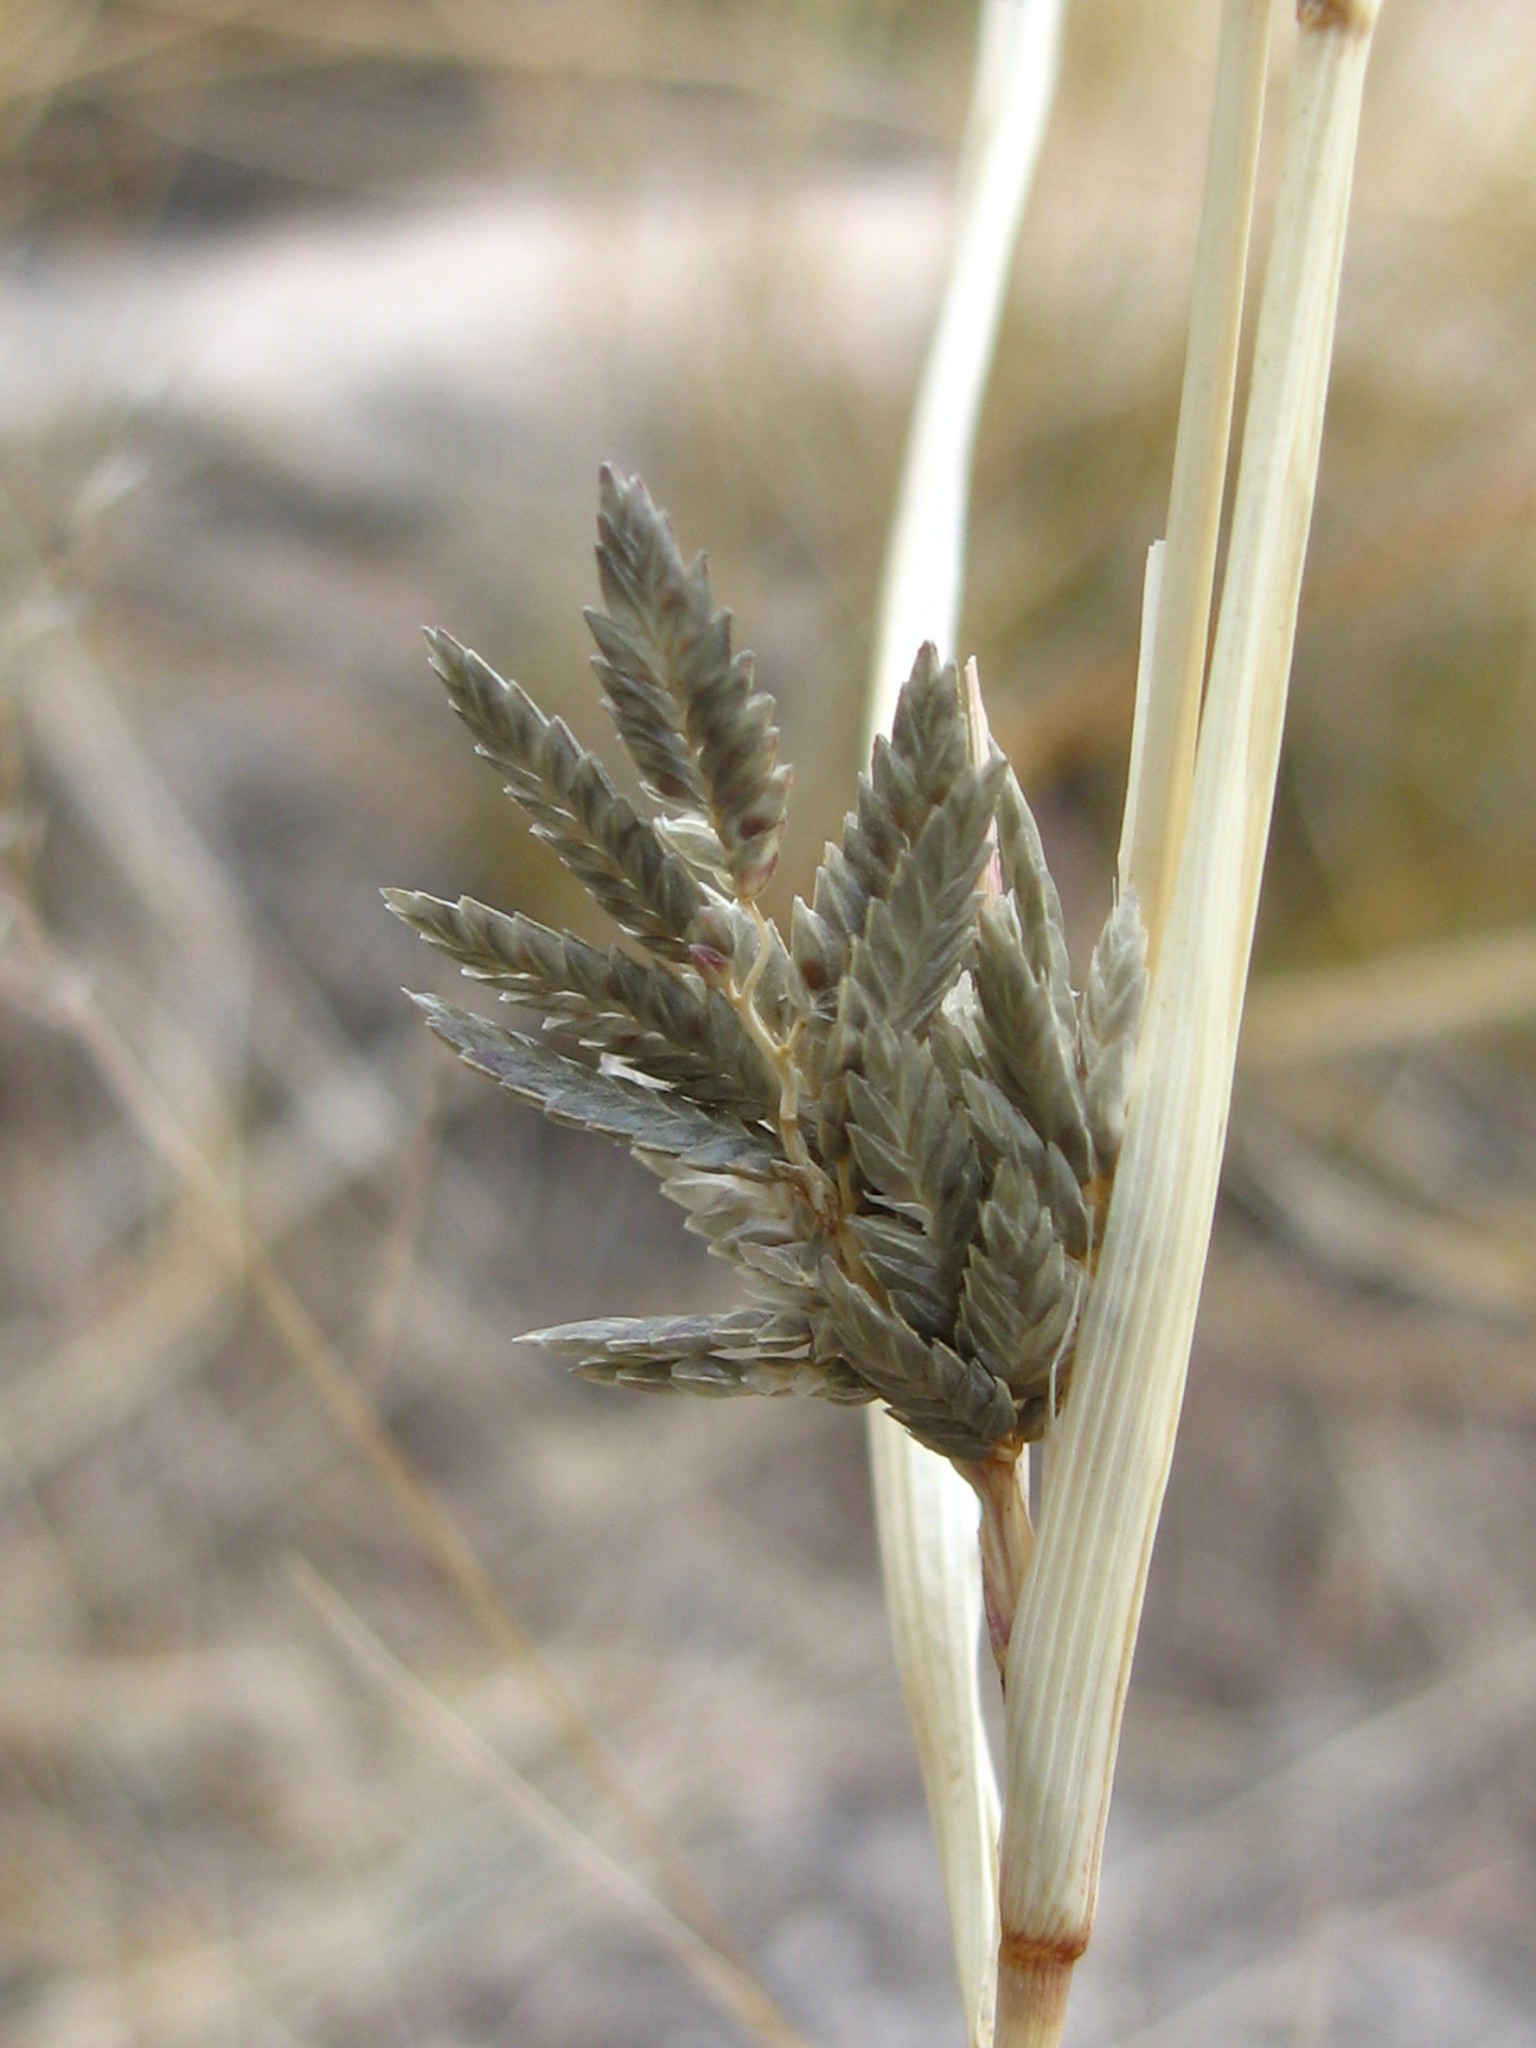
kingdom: Plantae
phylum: Tracheophyta
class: Liliopsida
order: Poales
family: Cyperaceae
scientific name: Cyperaceae
